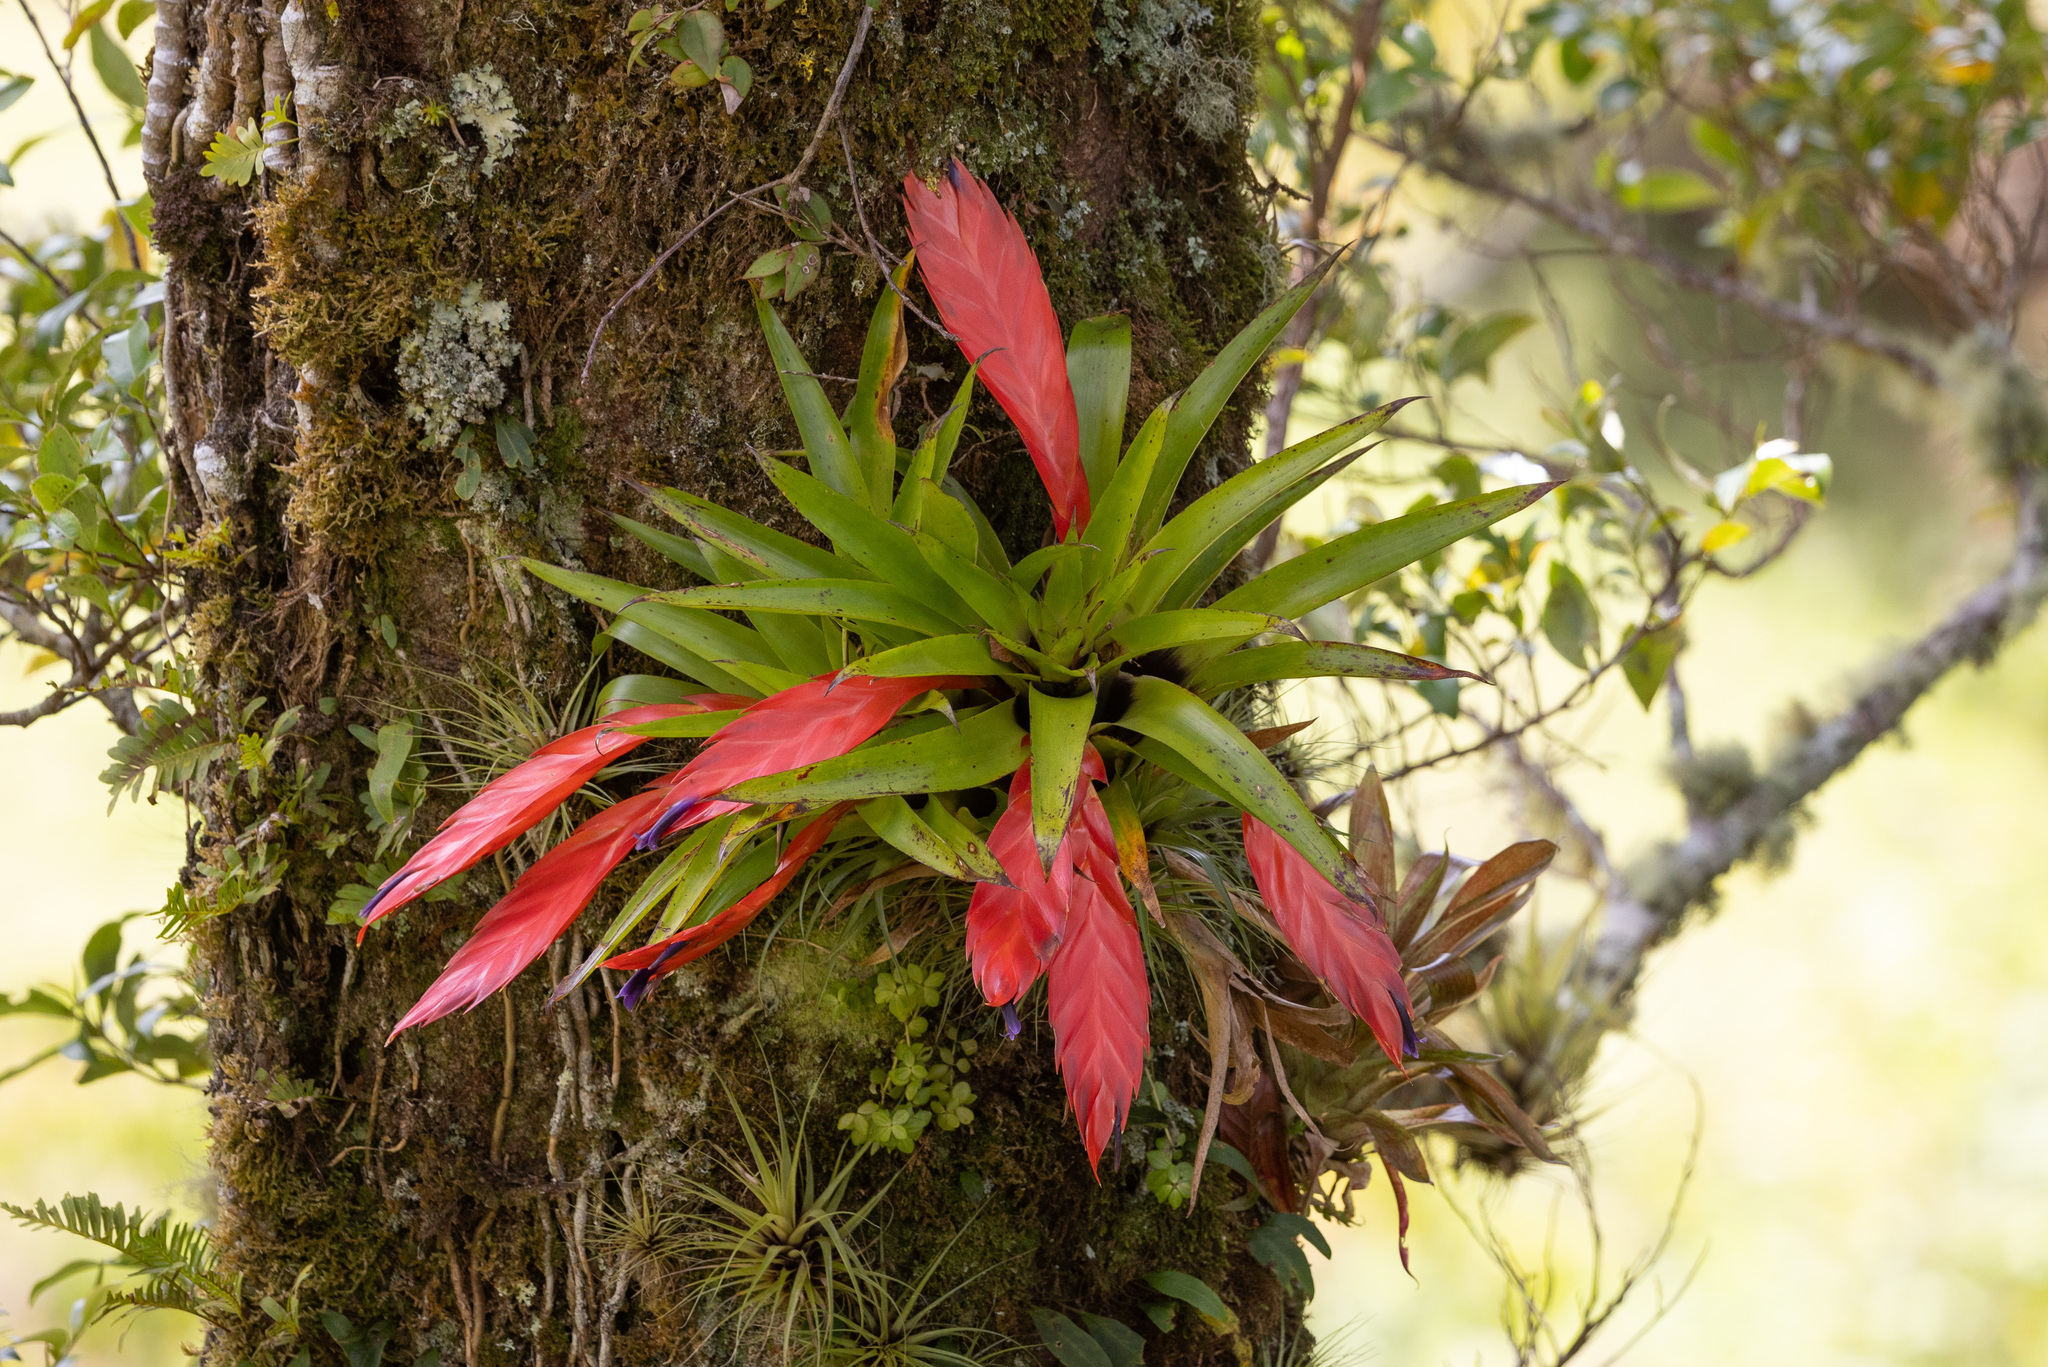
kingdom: Plantae
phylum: Tracheophyta
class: Liliopsida
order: Poales
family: Bromeliaceae
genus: Tillandsia
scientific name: Tillandsia multicaulis
